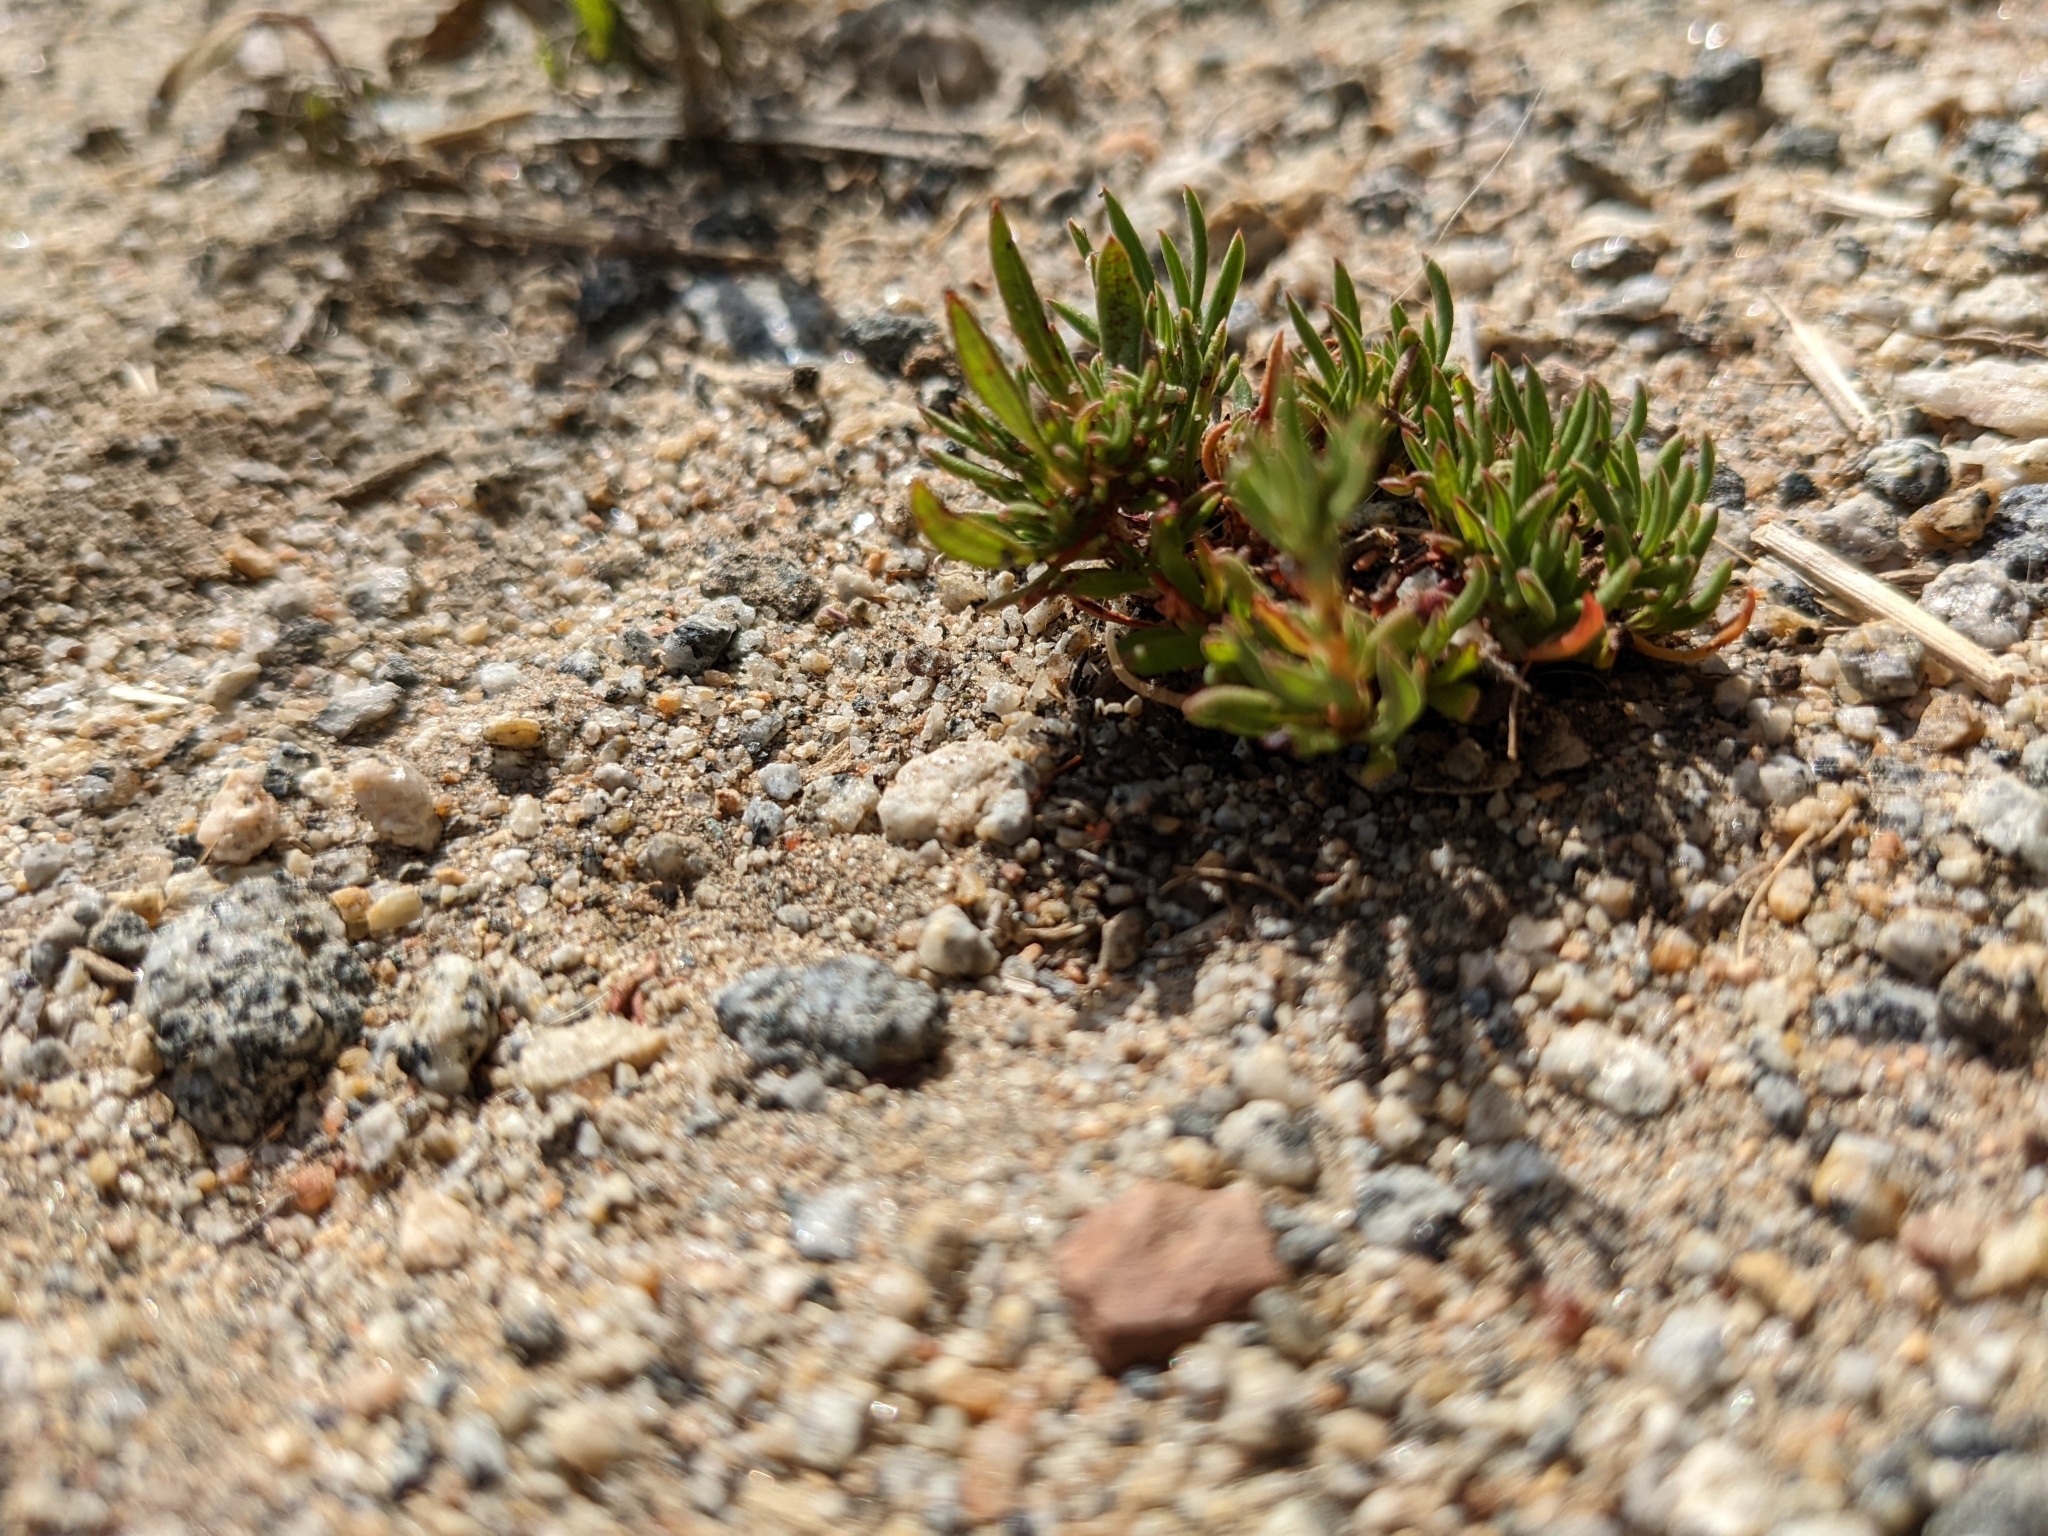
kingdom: Plantae
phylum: Tracheophyta
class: Magnoliopsida
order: Caryophyllales
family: Polygonaceae
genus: Eriogonum
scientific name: Eriogonum fasciculatum
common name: California wild buckwheat
